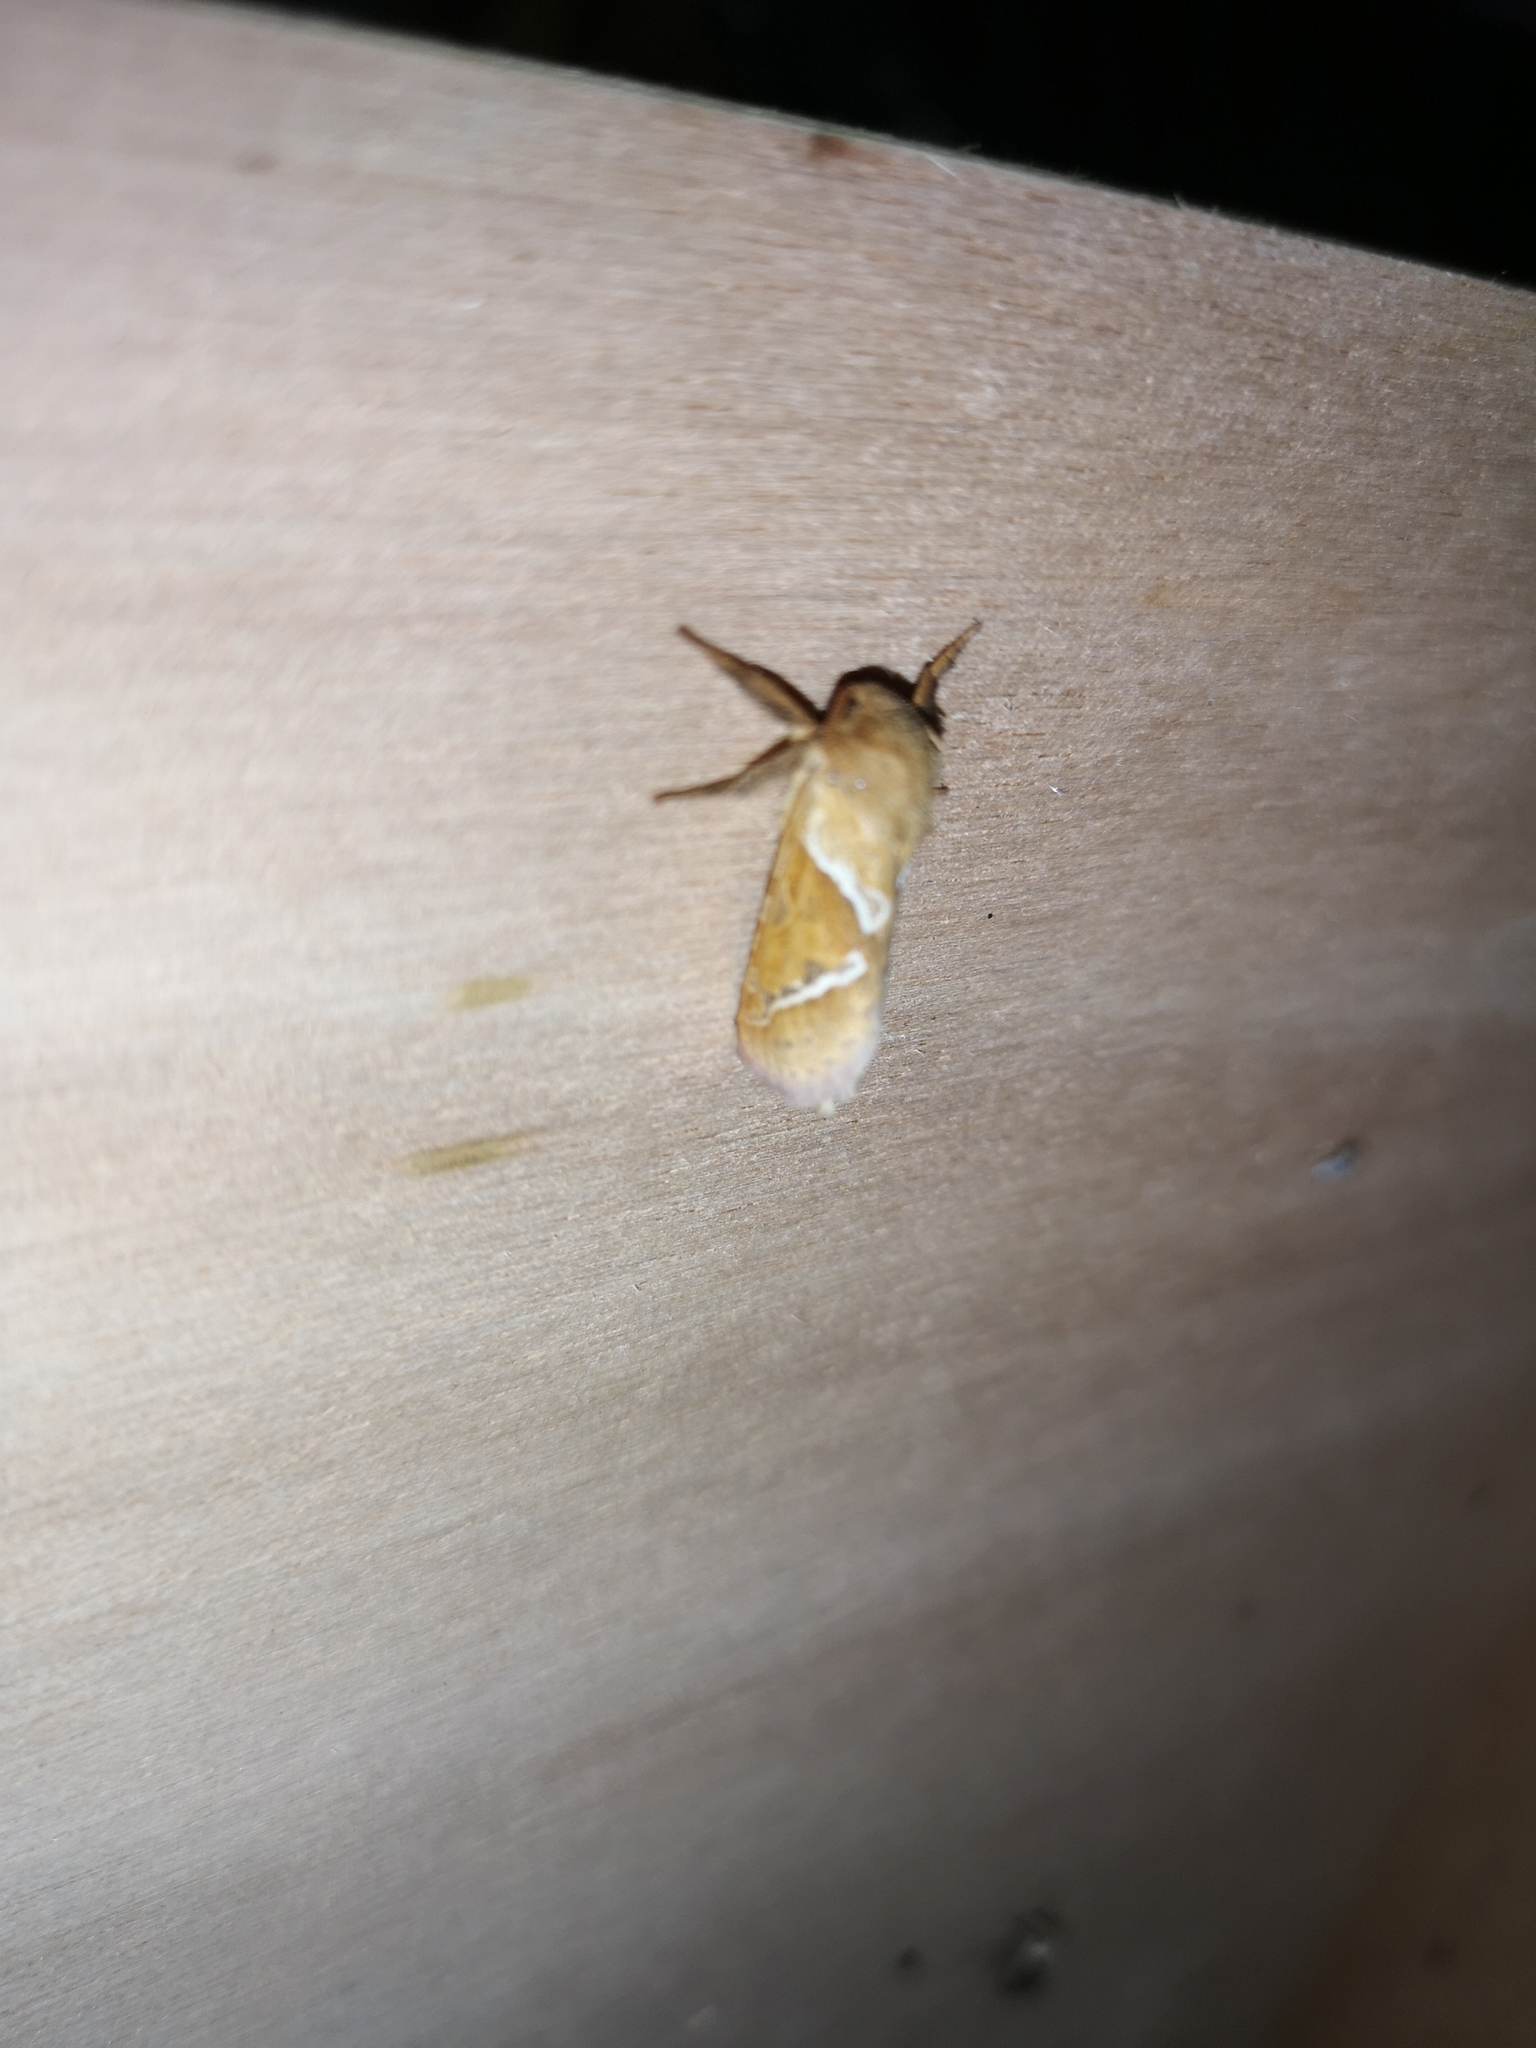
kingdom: Animalia
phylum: Arthropoda
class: Insecta
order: Lepidoptera
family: Hepialidae
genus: Triodia
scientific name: Triodia sylvina
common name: Orange swift
